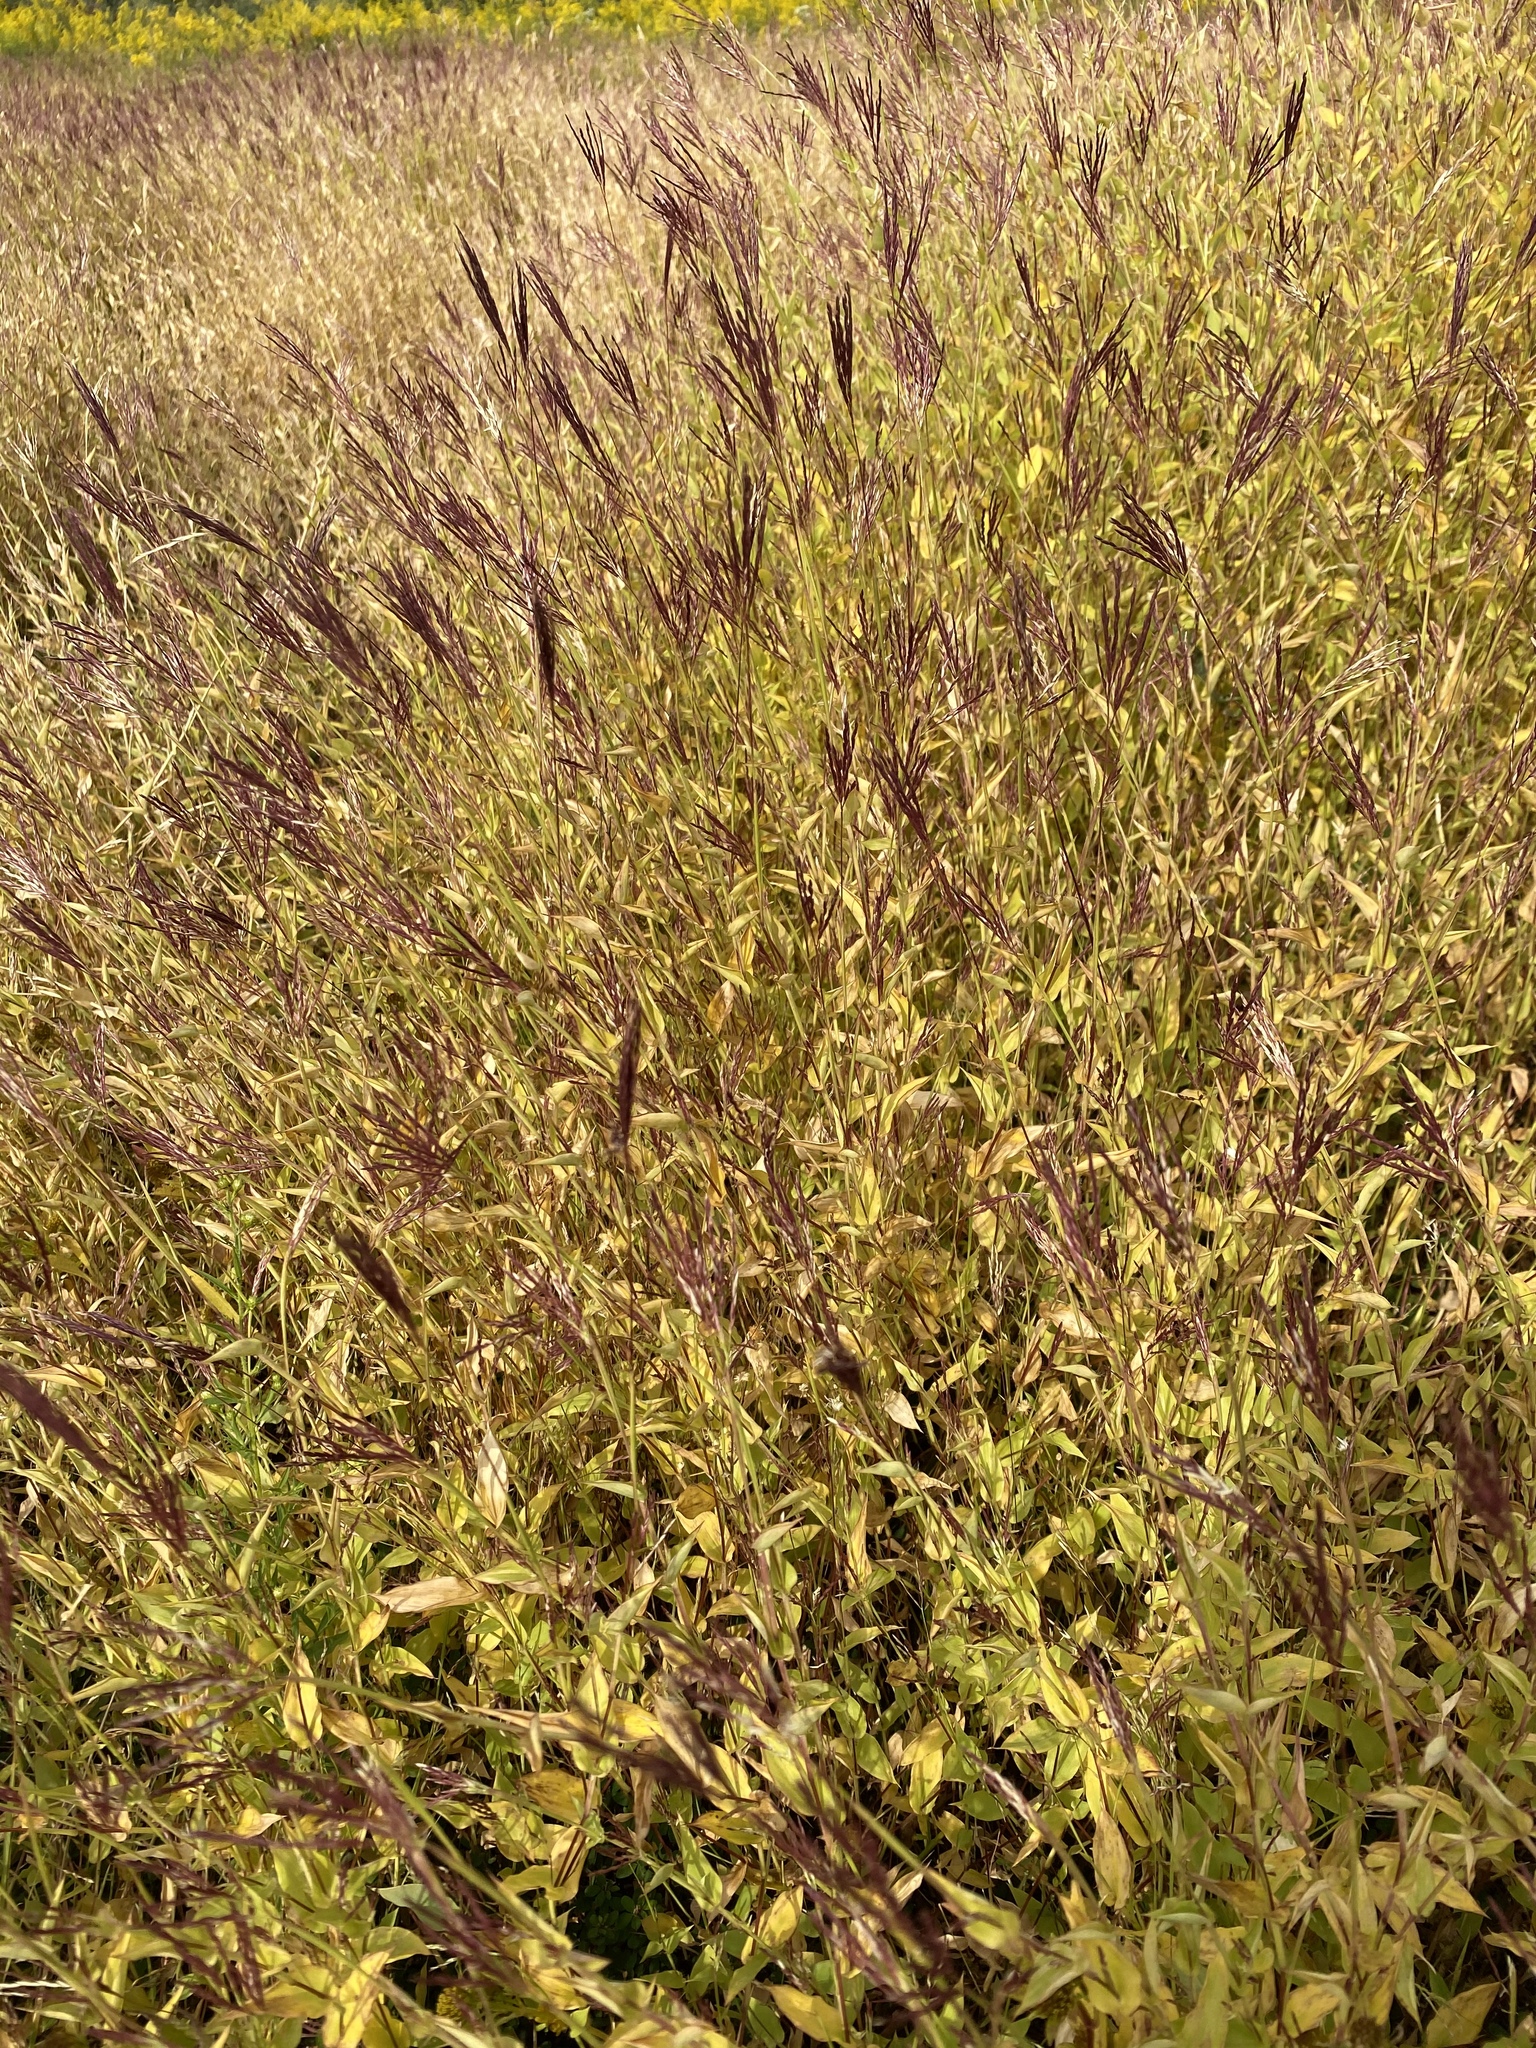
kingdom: Plantae
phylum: Tracheophyta
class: Liliopsida
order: Poales
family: Poaceae
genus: Arthraxon
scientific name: Arthraxon hispidus
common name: Small carpgrass
